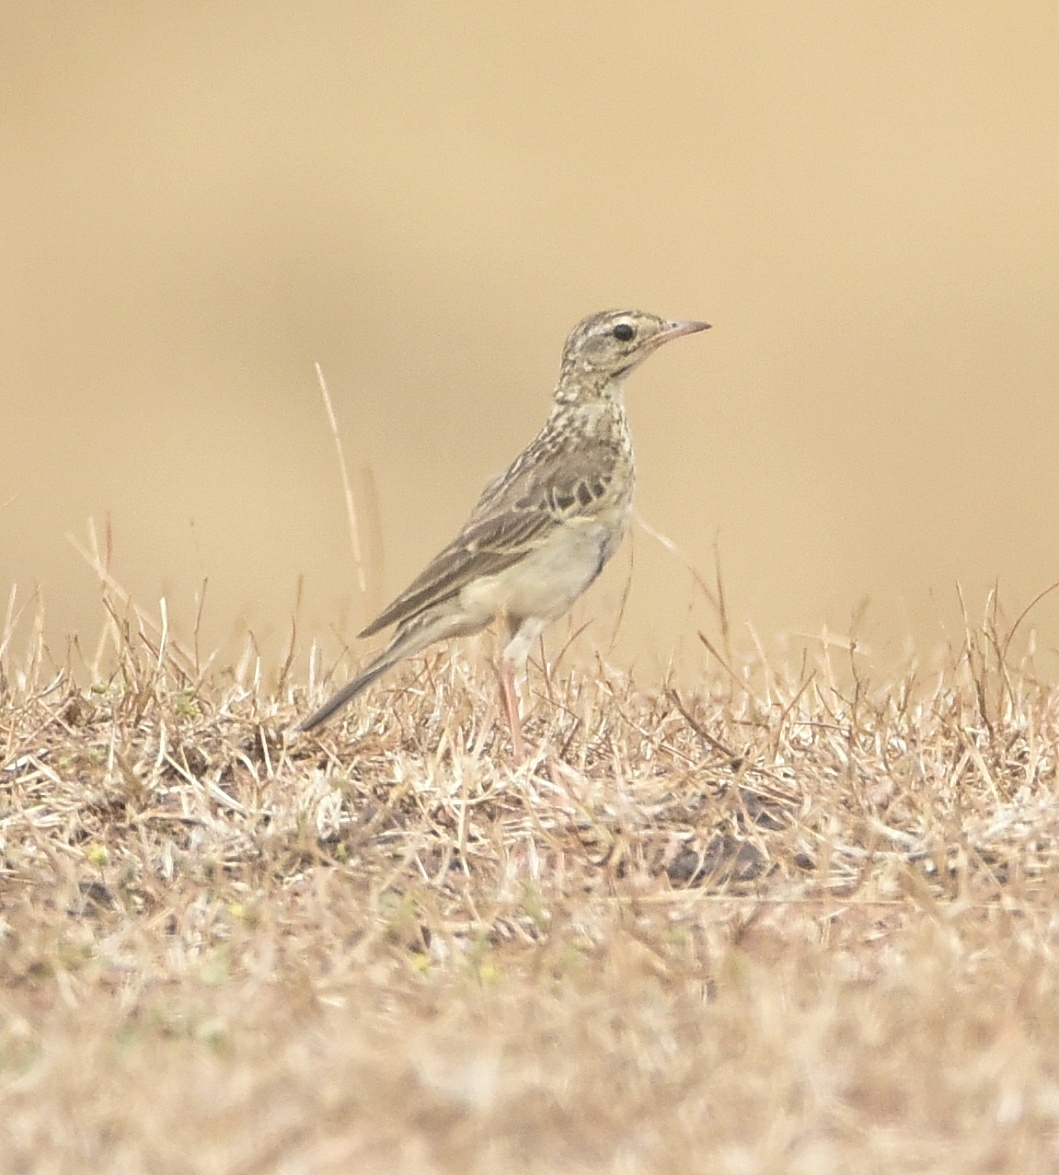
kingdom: Animalia
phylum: Chordata
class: Aves
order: Passeriformes
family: Motacillidae
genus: Anthus
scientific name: Anthus richardi
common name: Richard's pipit
